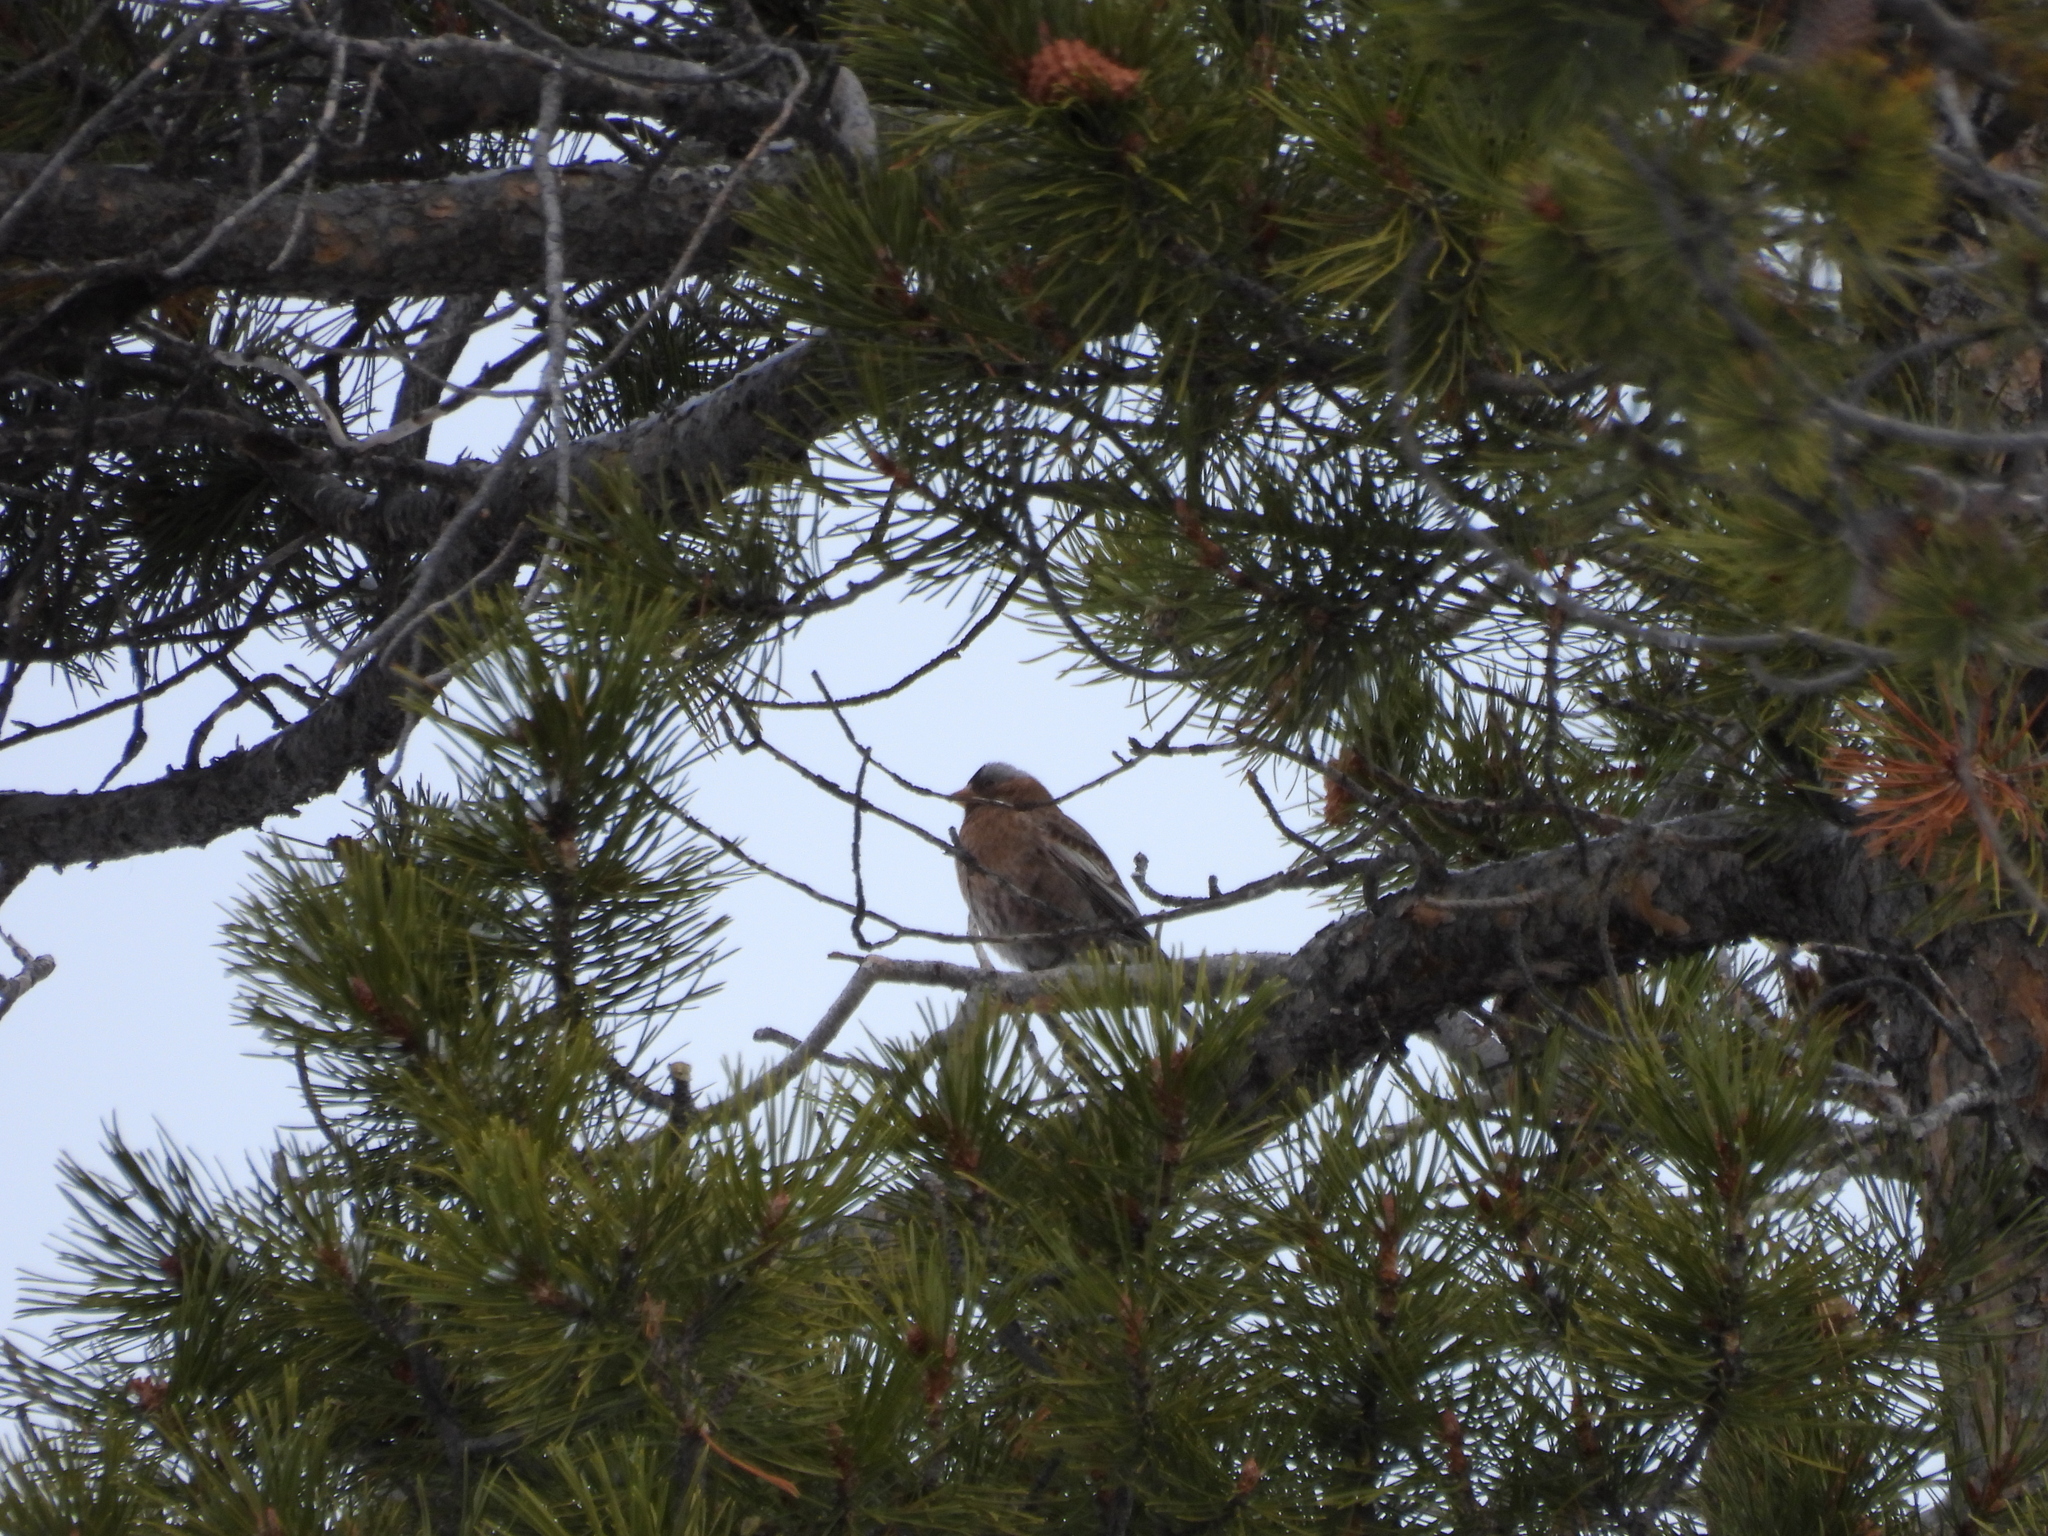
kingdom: Animalia
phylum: Chordata
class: Aves
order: Passeriformes
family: Fringillidae
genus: Leucosticte
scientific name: Leucosticte tephrocotis
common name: Gray-crowned rosy-finch
